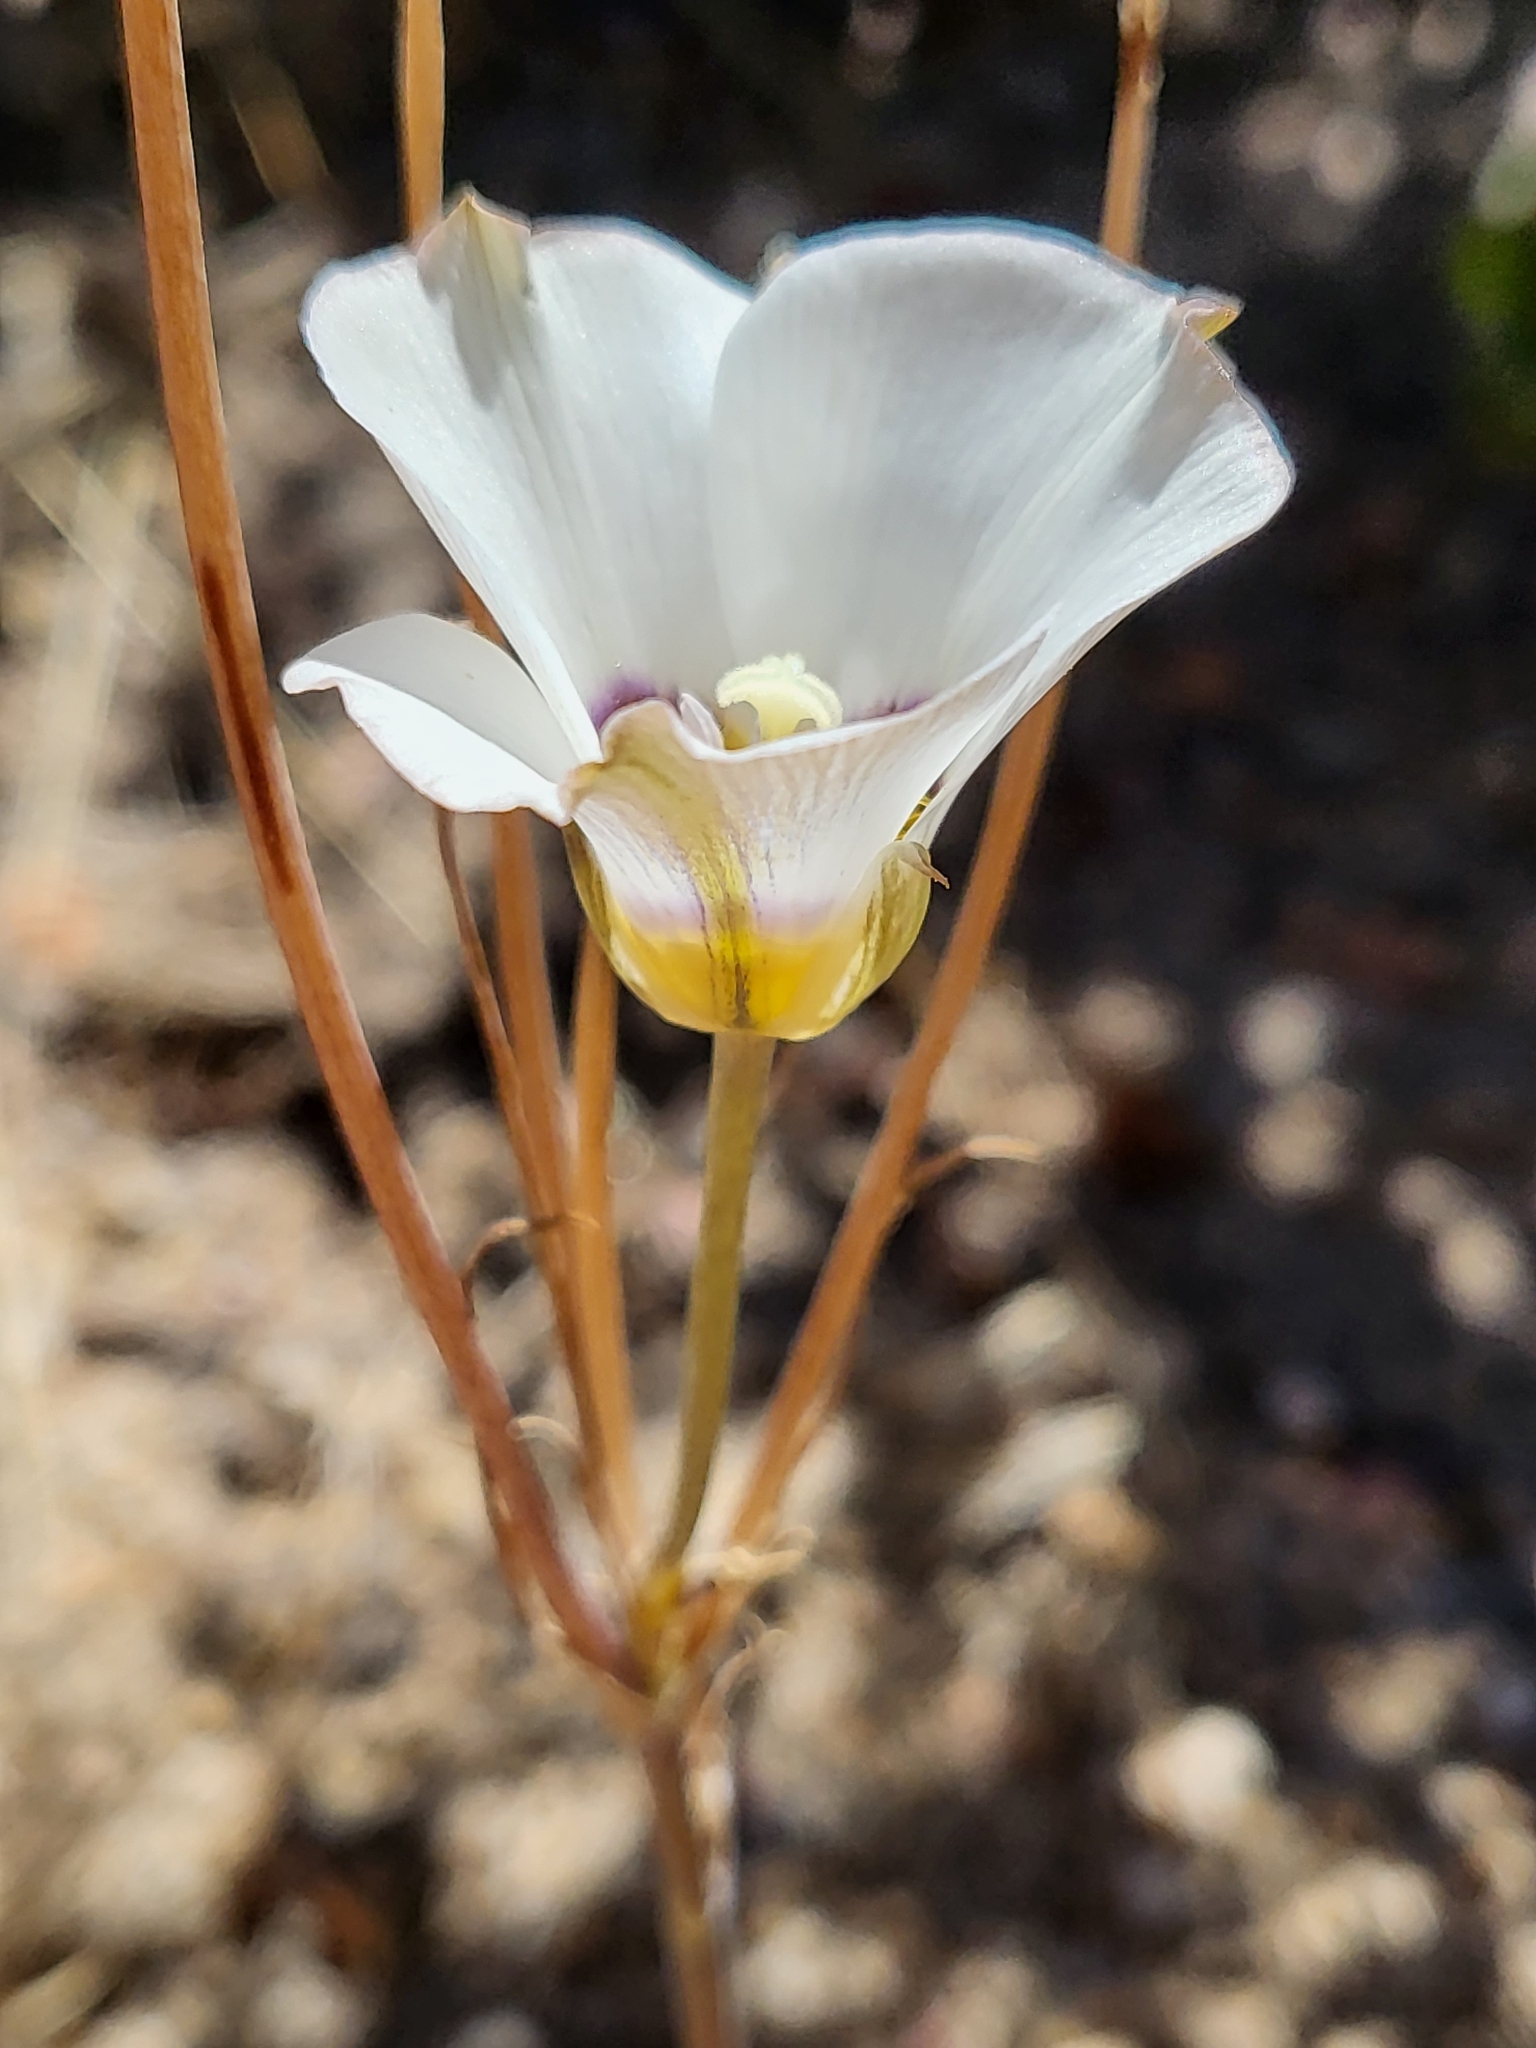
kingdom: Plantae
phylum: Tracheophyta
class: Liliopsida
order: Liliales
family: Liliaceae
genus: Calochortus
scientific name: Calochortus leichtlinii
